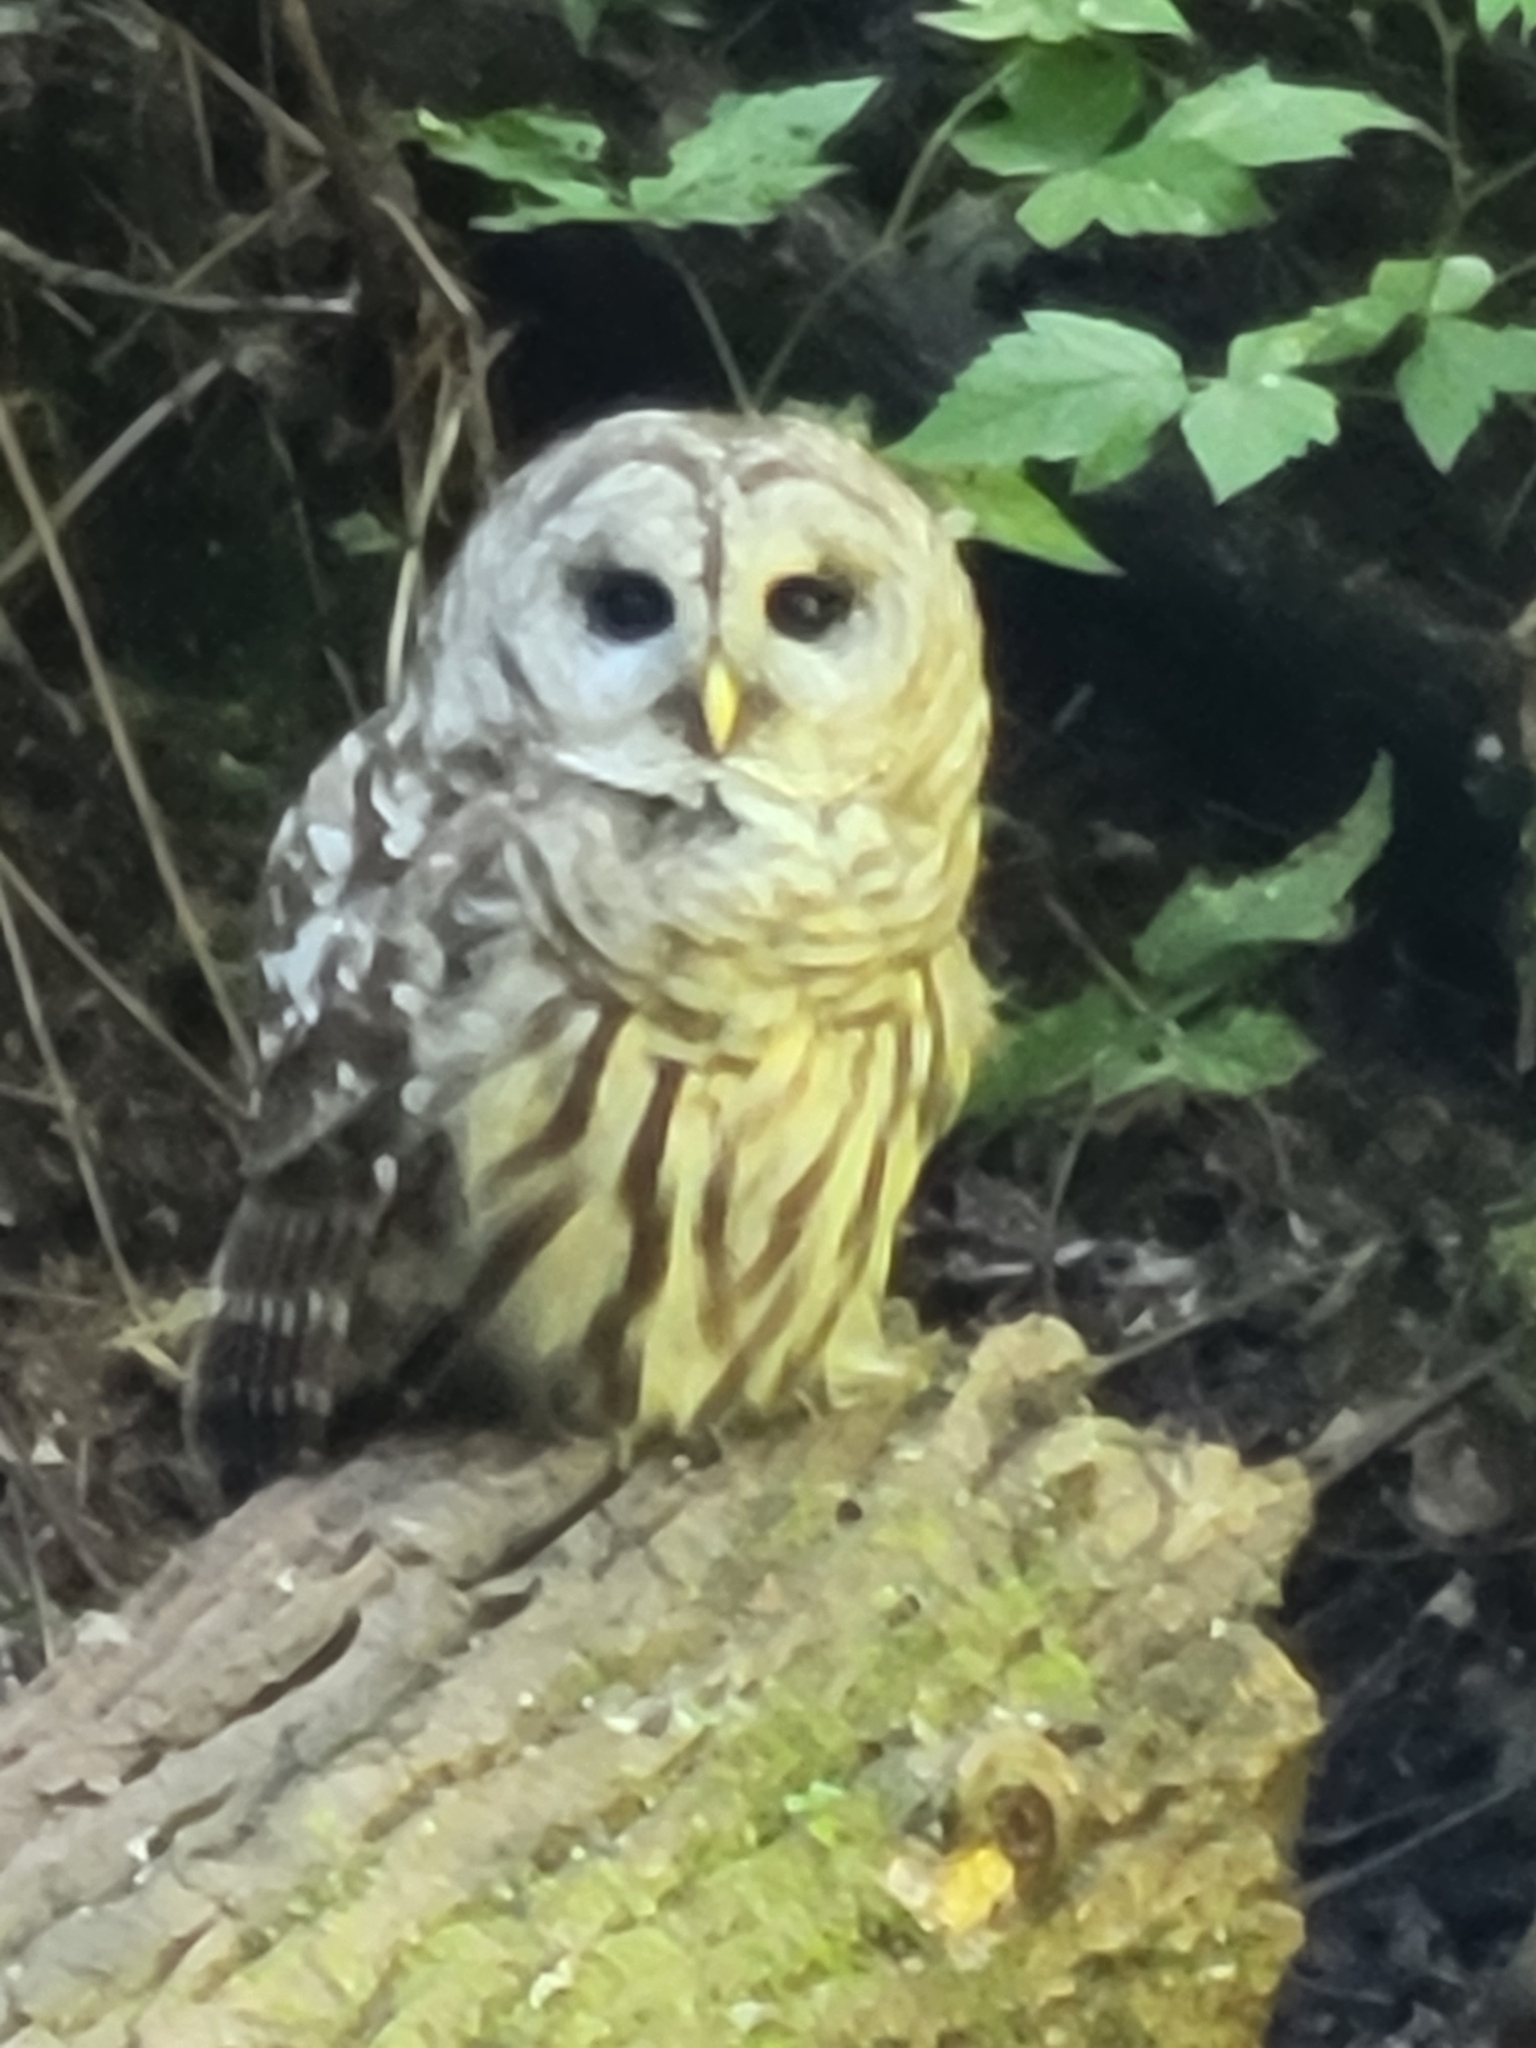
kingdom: Animalia
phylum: Chordata
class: Aves
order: Strigiformes
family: Strigidae
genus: Strix
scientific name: Strix varia
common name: Barred owl
